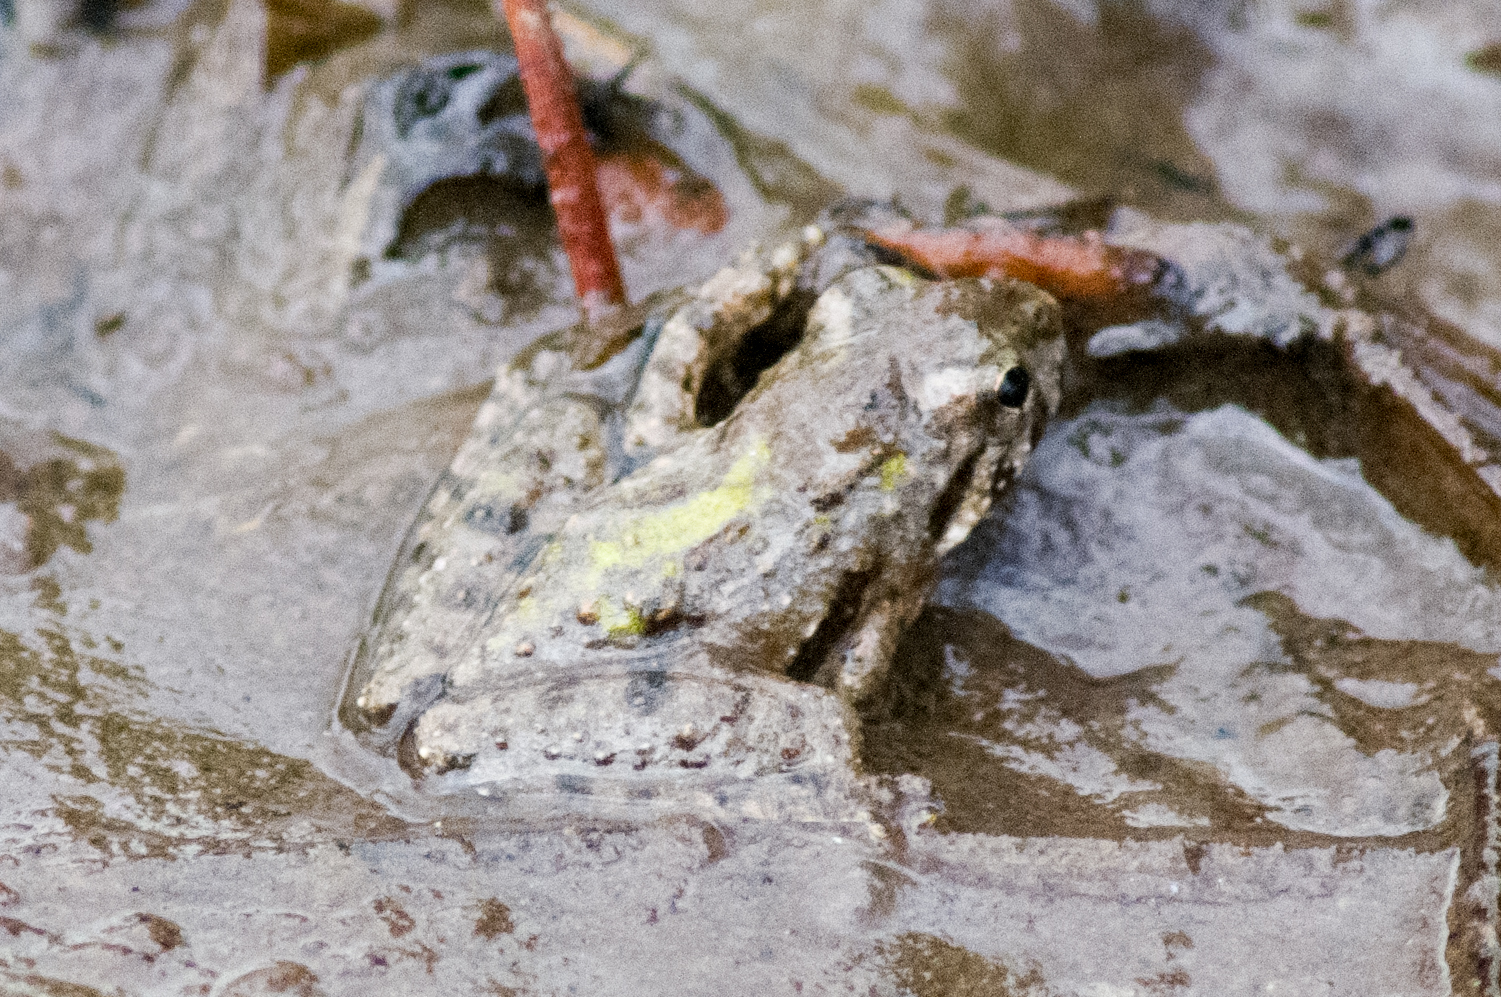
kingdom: Animalia
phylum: Chordata
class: Amphibia
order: Anura
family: Hylidae
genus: Acris
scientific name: Acris blanchardi
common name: Blanchard's cricket frog
